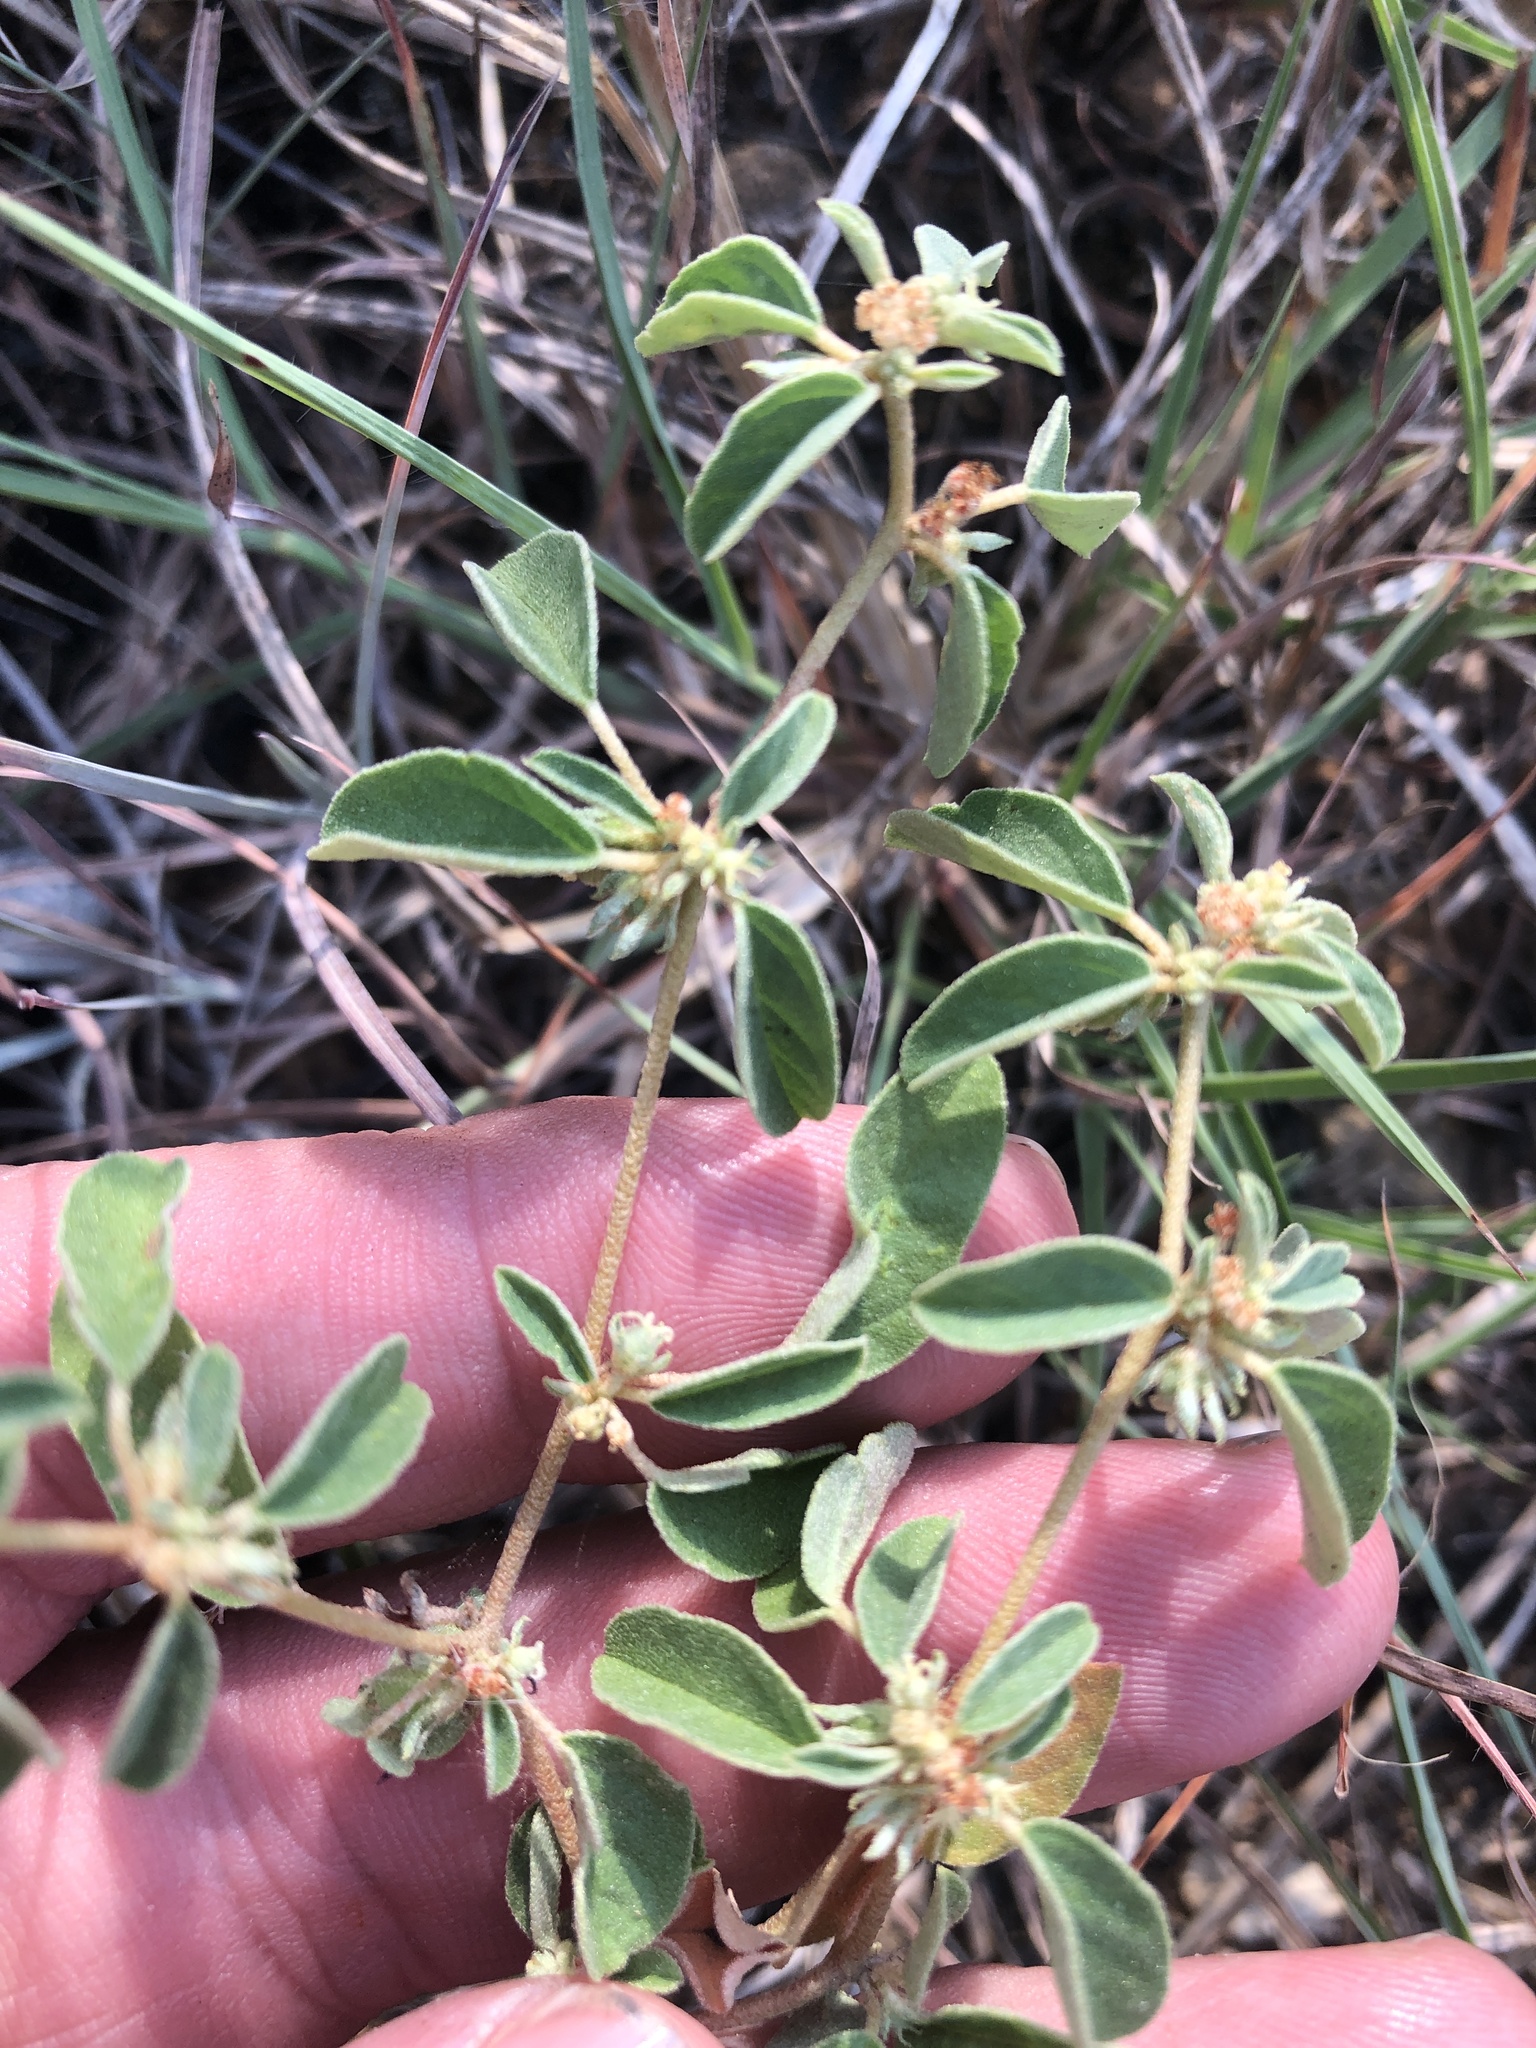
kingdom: Plantae
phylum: Tracheophyta
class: Magnoliopsida
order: Malpighiales
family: Euphorbiaceae
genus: Croton
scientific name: Croton monanthogynus
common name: One-seed croton
